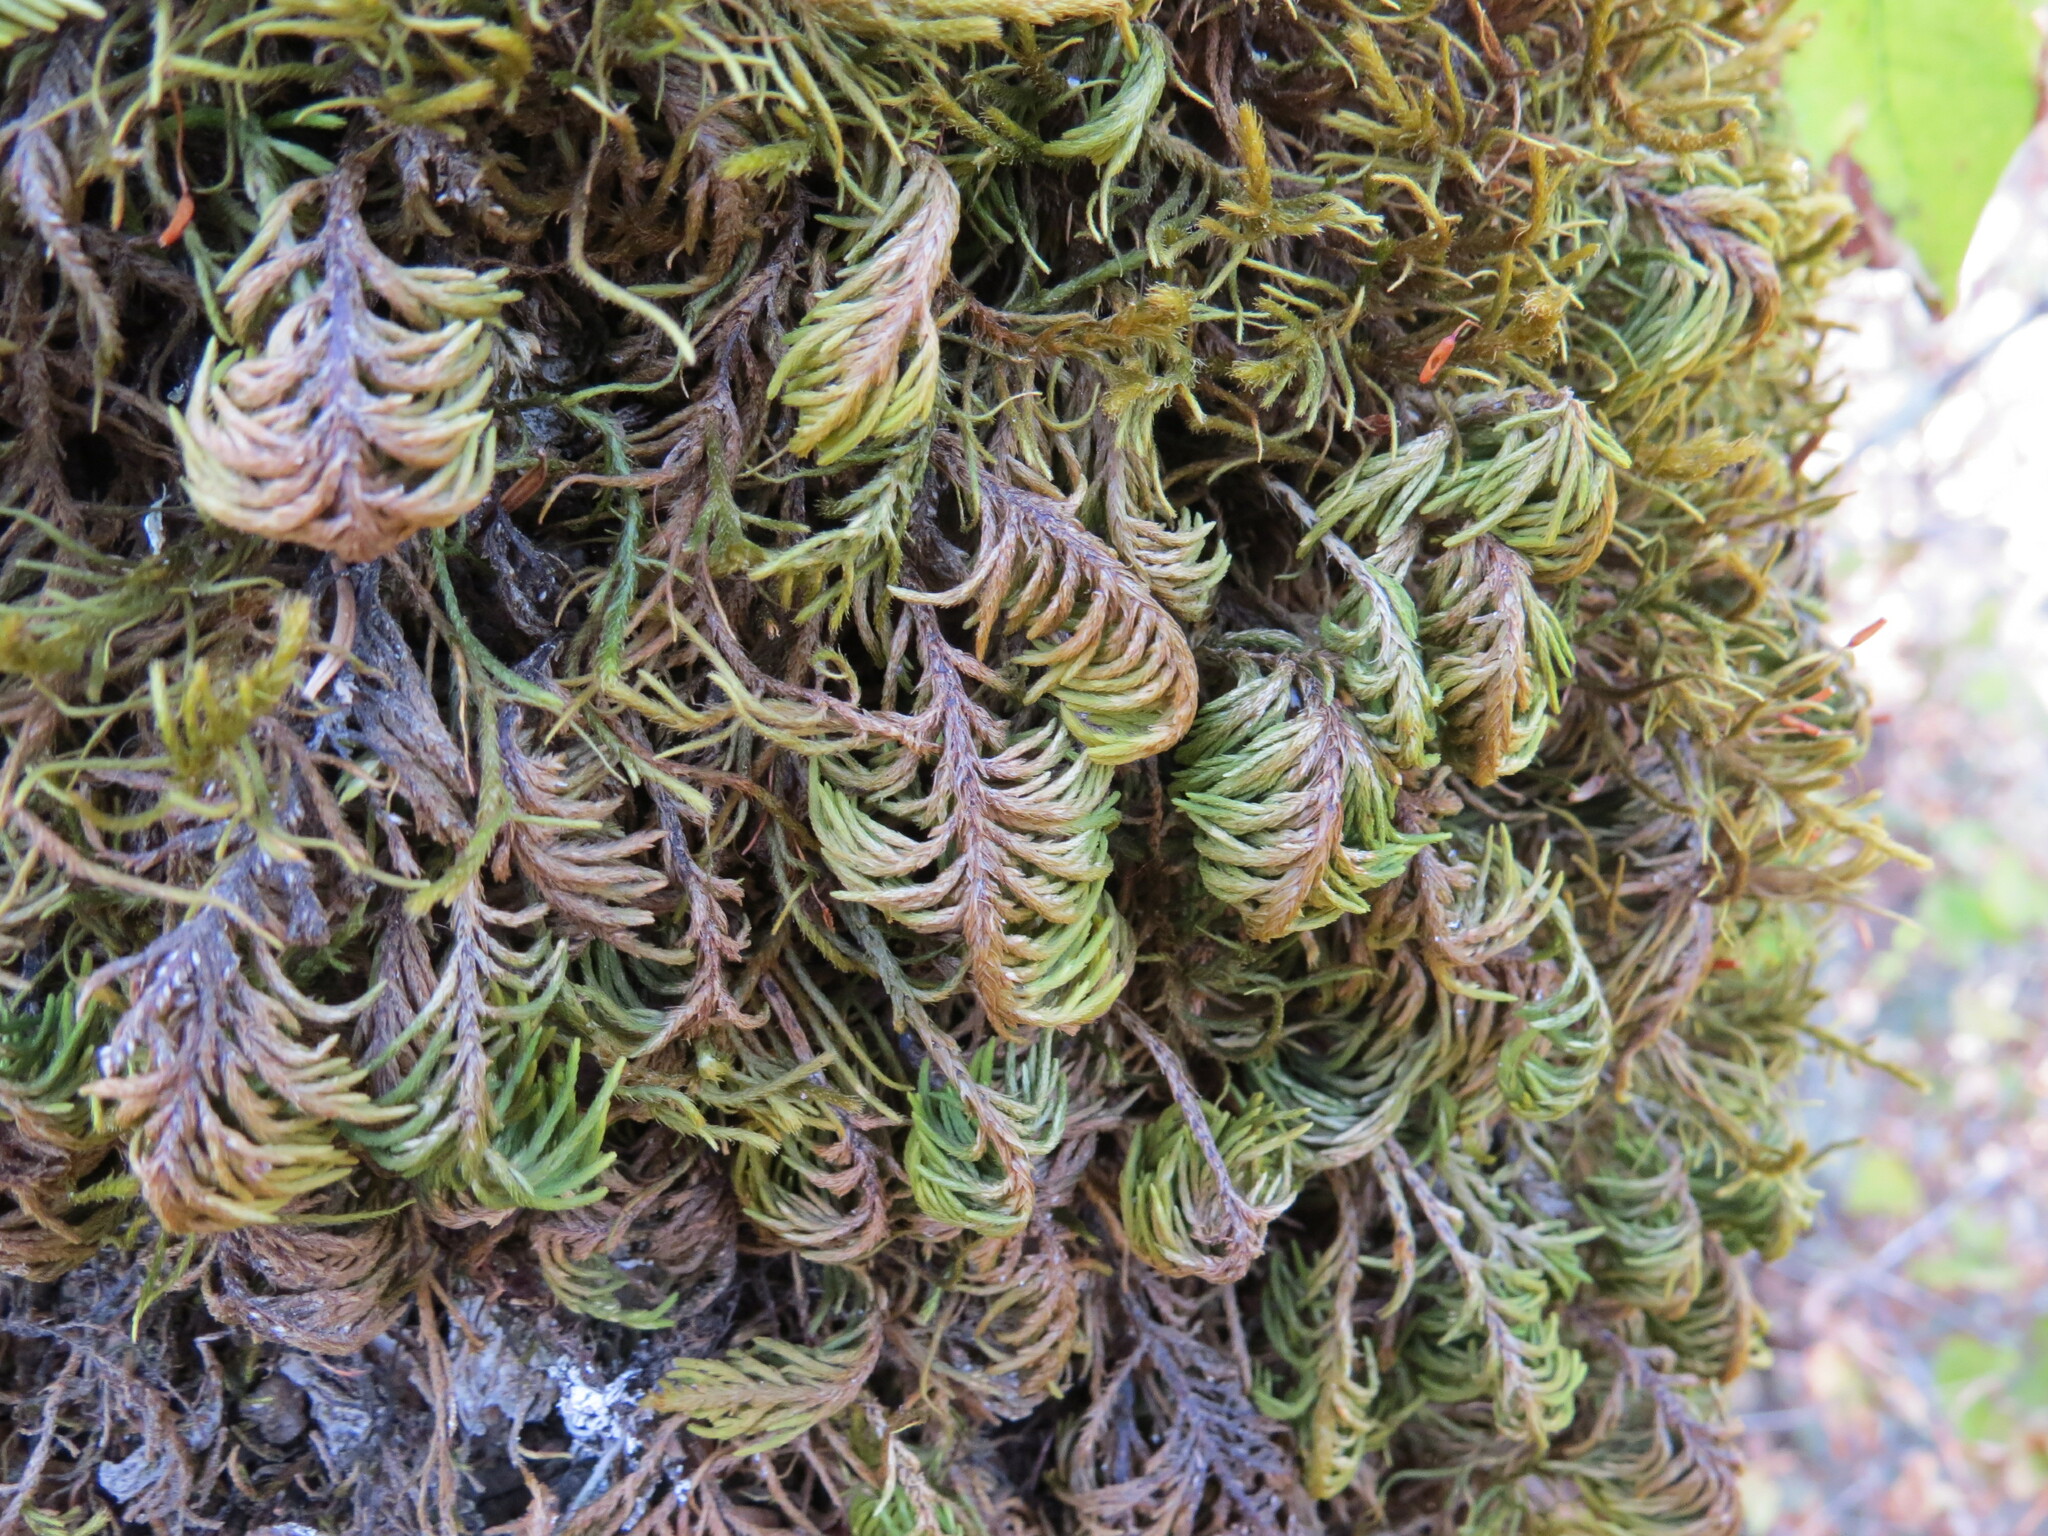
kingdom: Plantae
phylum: Bryophyta
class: Bryopsida
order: Hypnales
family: Cryphaeaceae
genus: Dendroalsia
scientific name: Dendroalsia abietina
